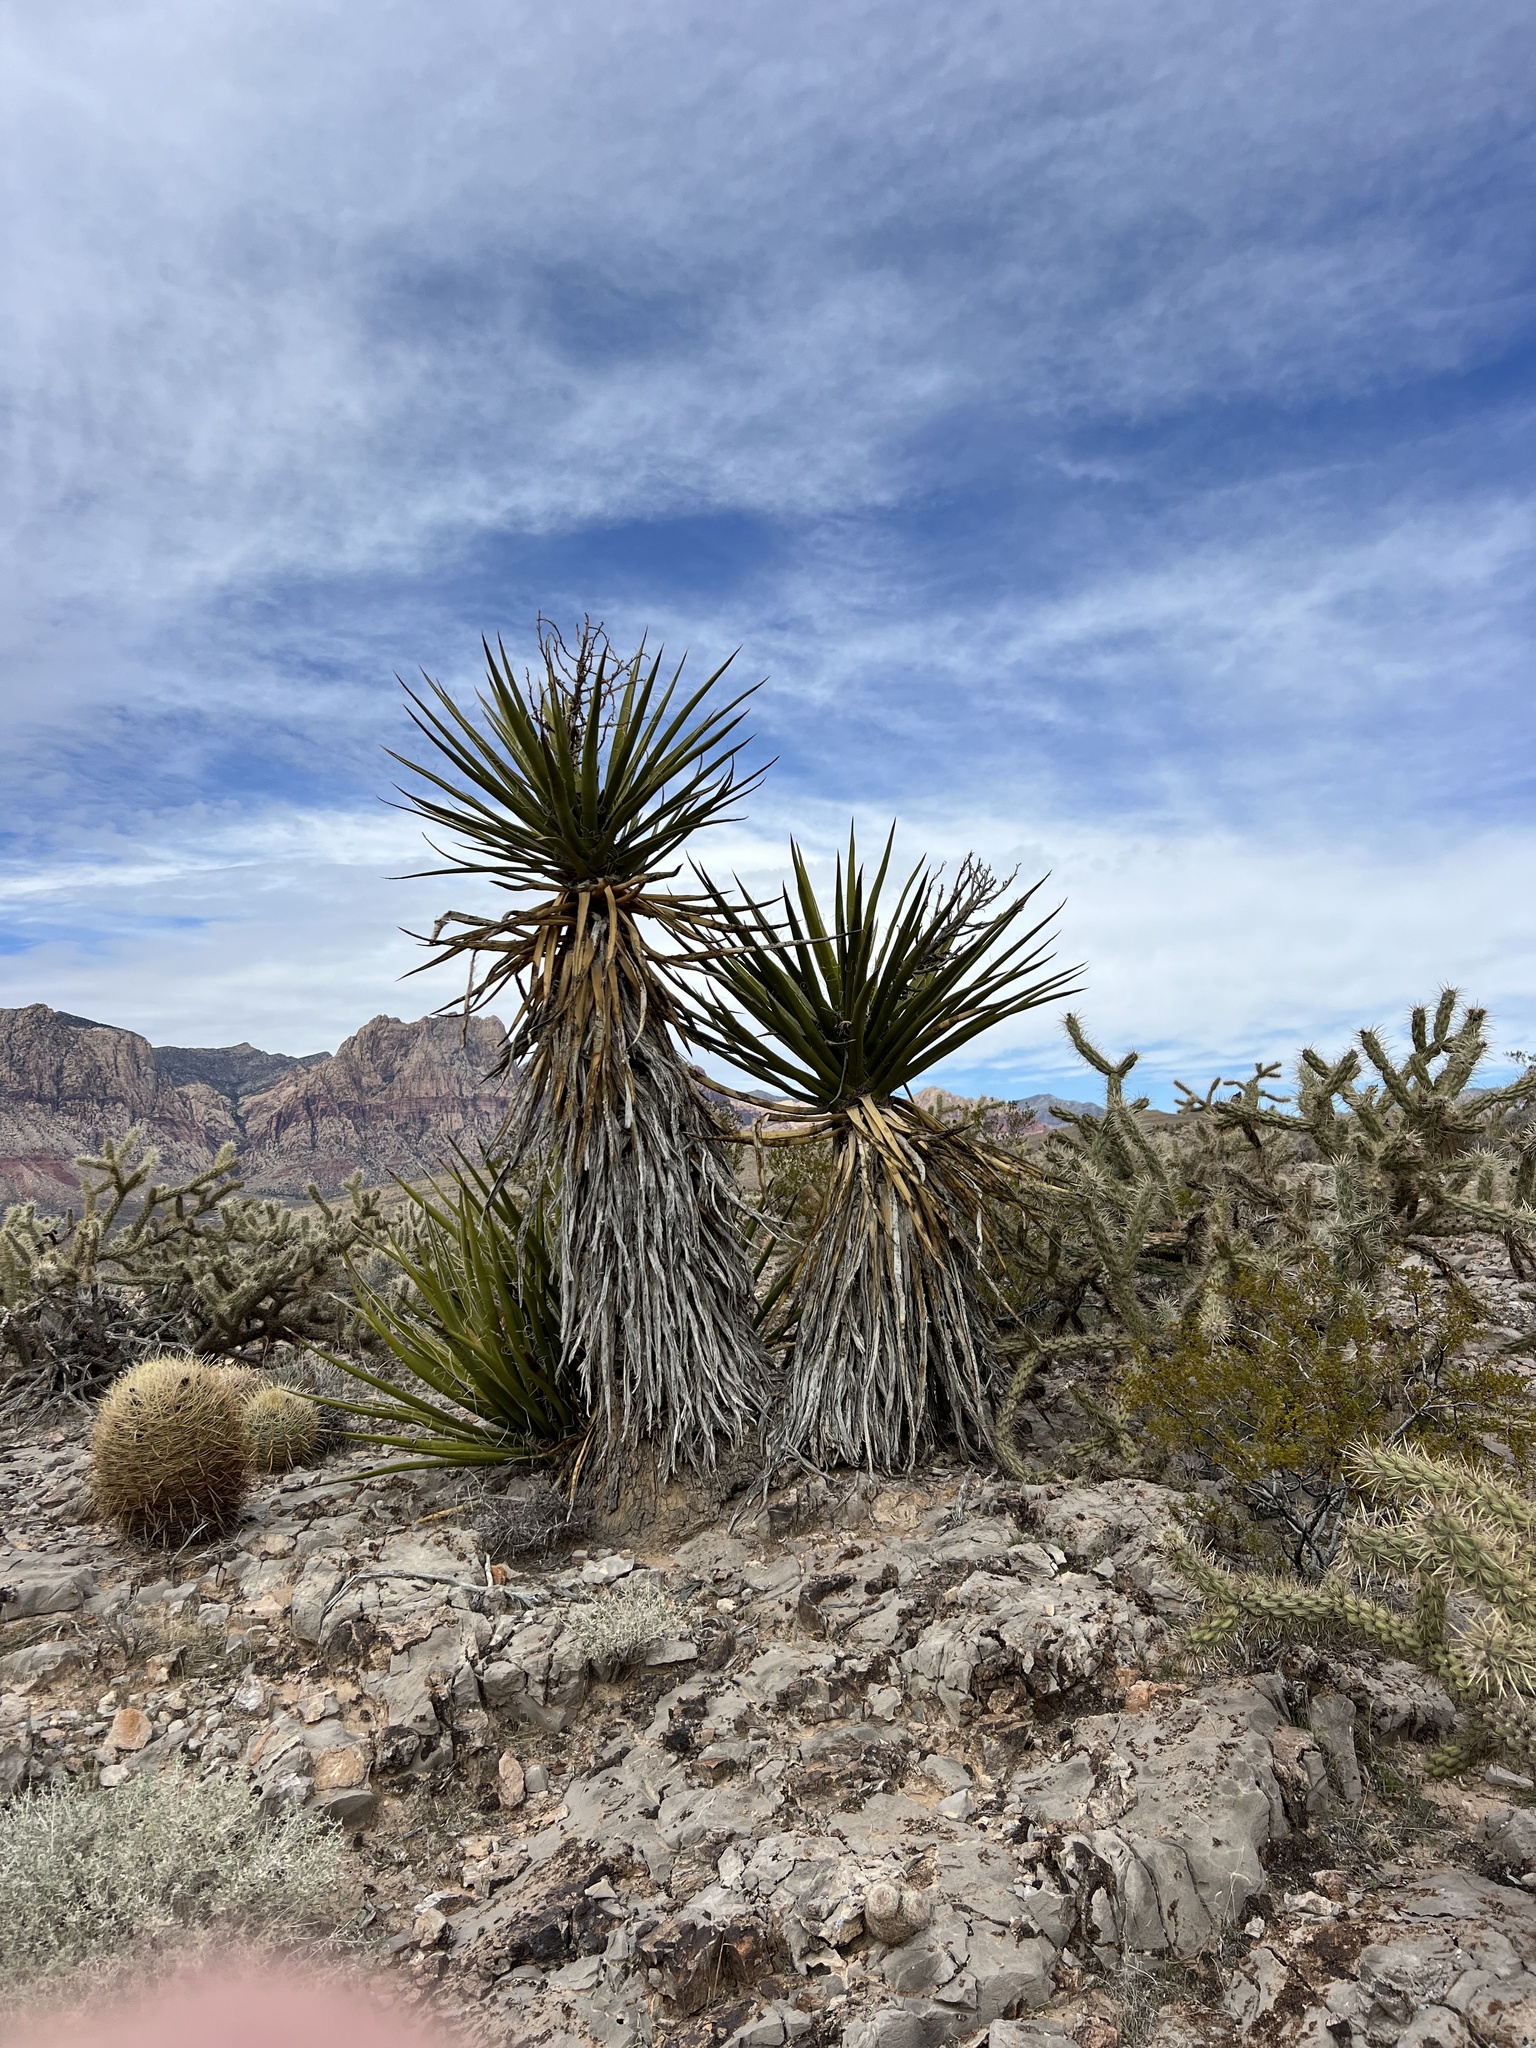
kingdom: Plantae
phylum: Tracheophyta
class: Liliopsida
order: Asparagales
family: Asparagaceae
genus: Yucca
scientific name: Yucca schidigera
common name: Mojave yucca
